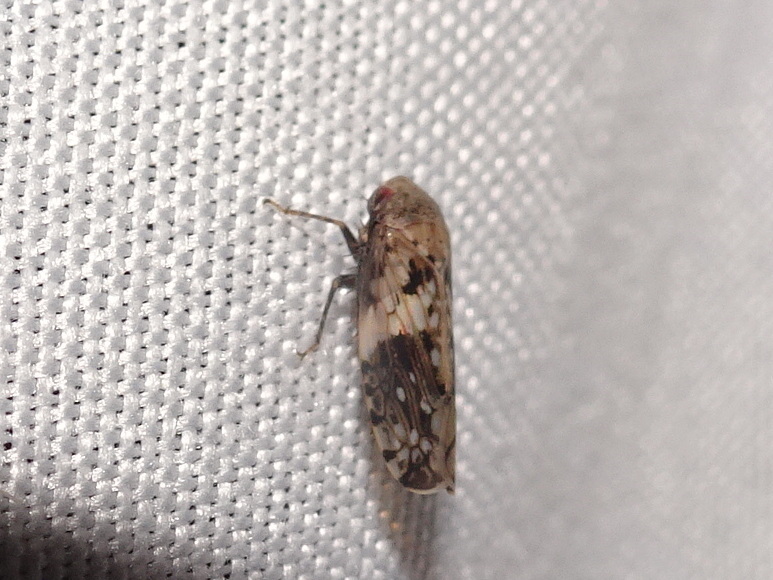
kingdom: Animalia
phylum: Arthropoda
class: Insecta
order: Hemiptera
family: Cicadellidae
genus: Menosoma
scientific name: Menosoma cinctum
